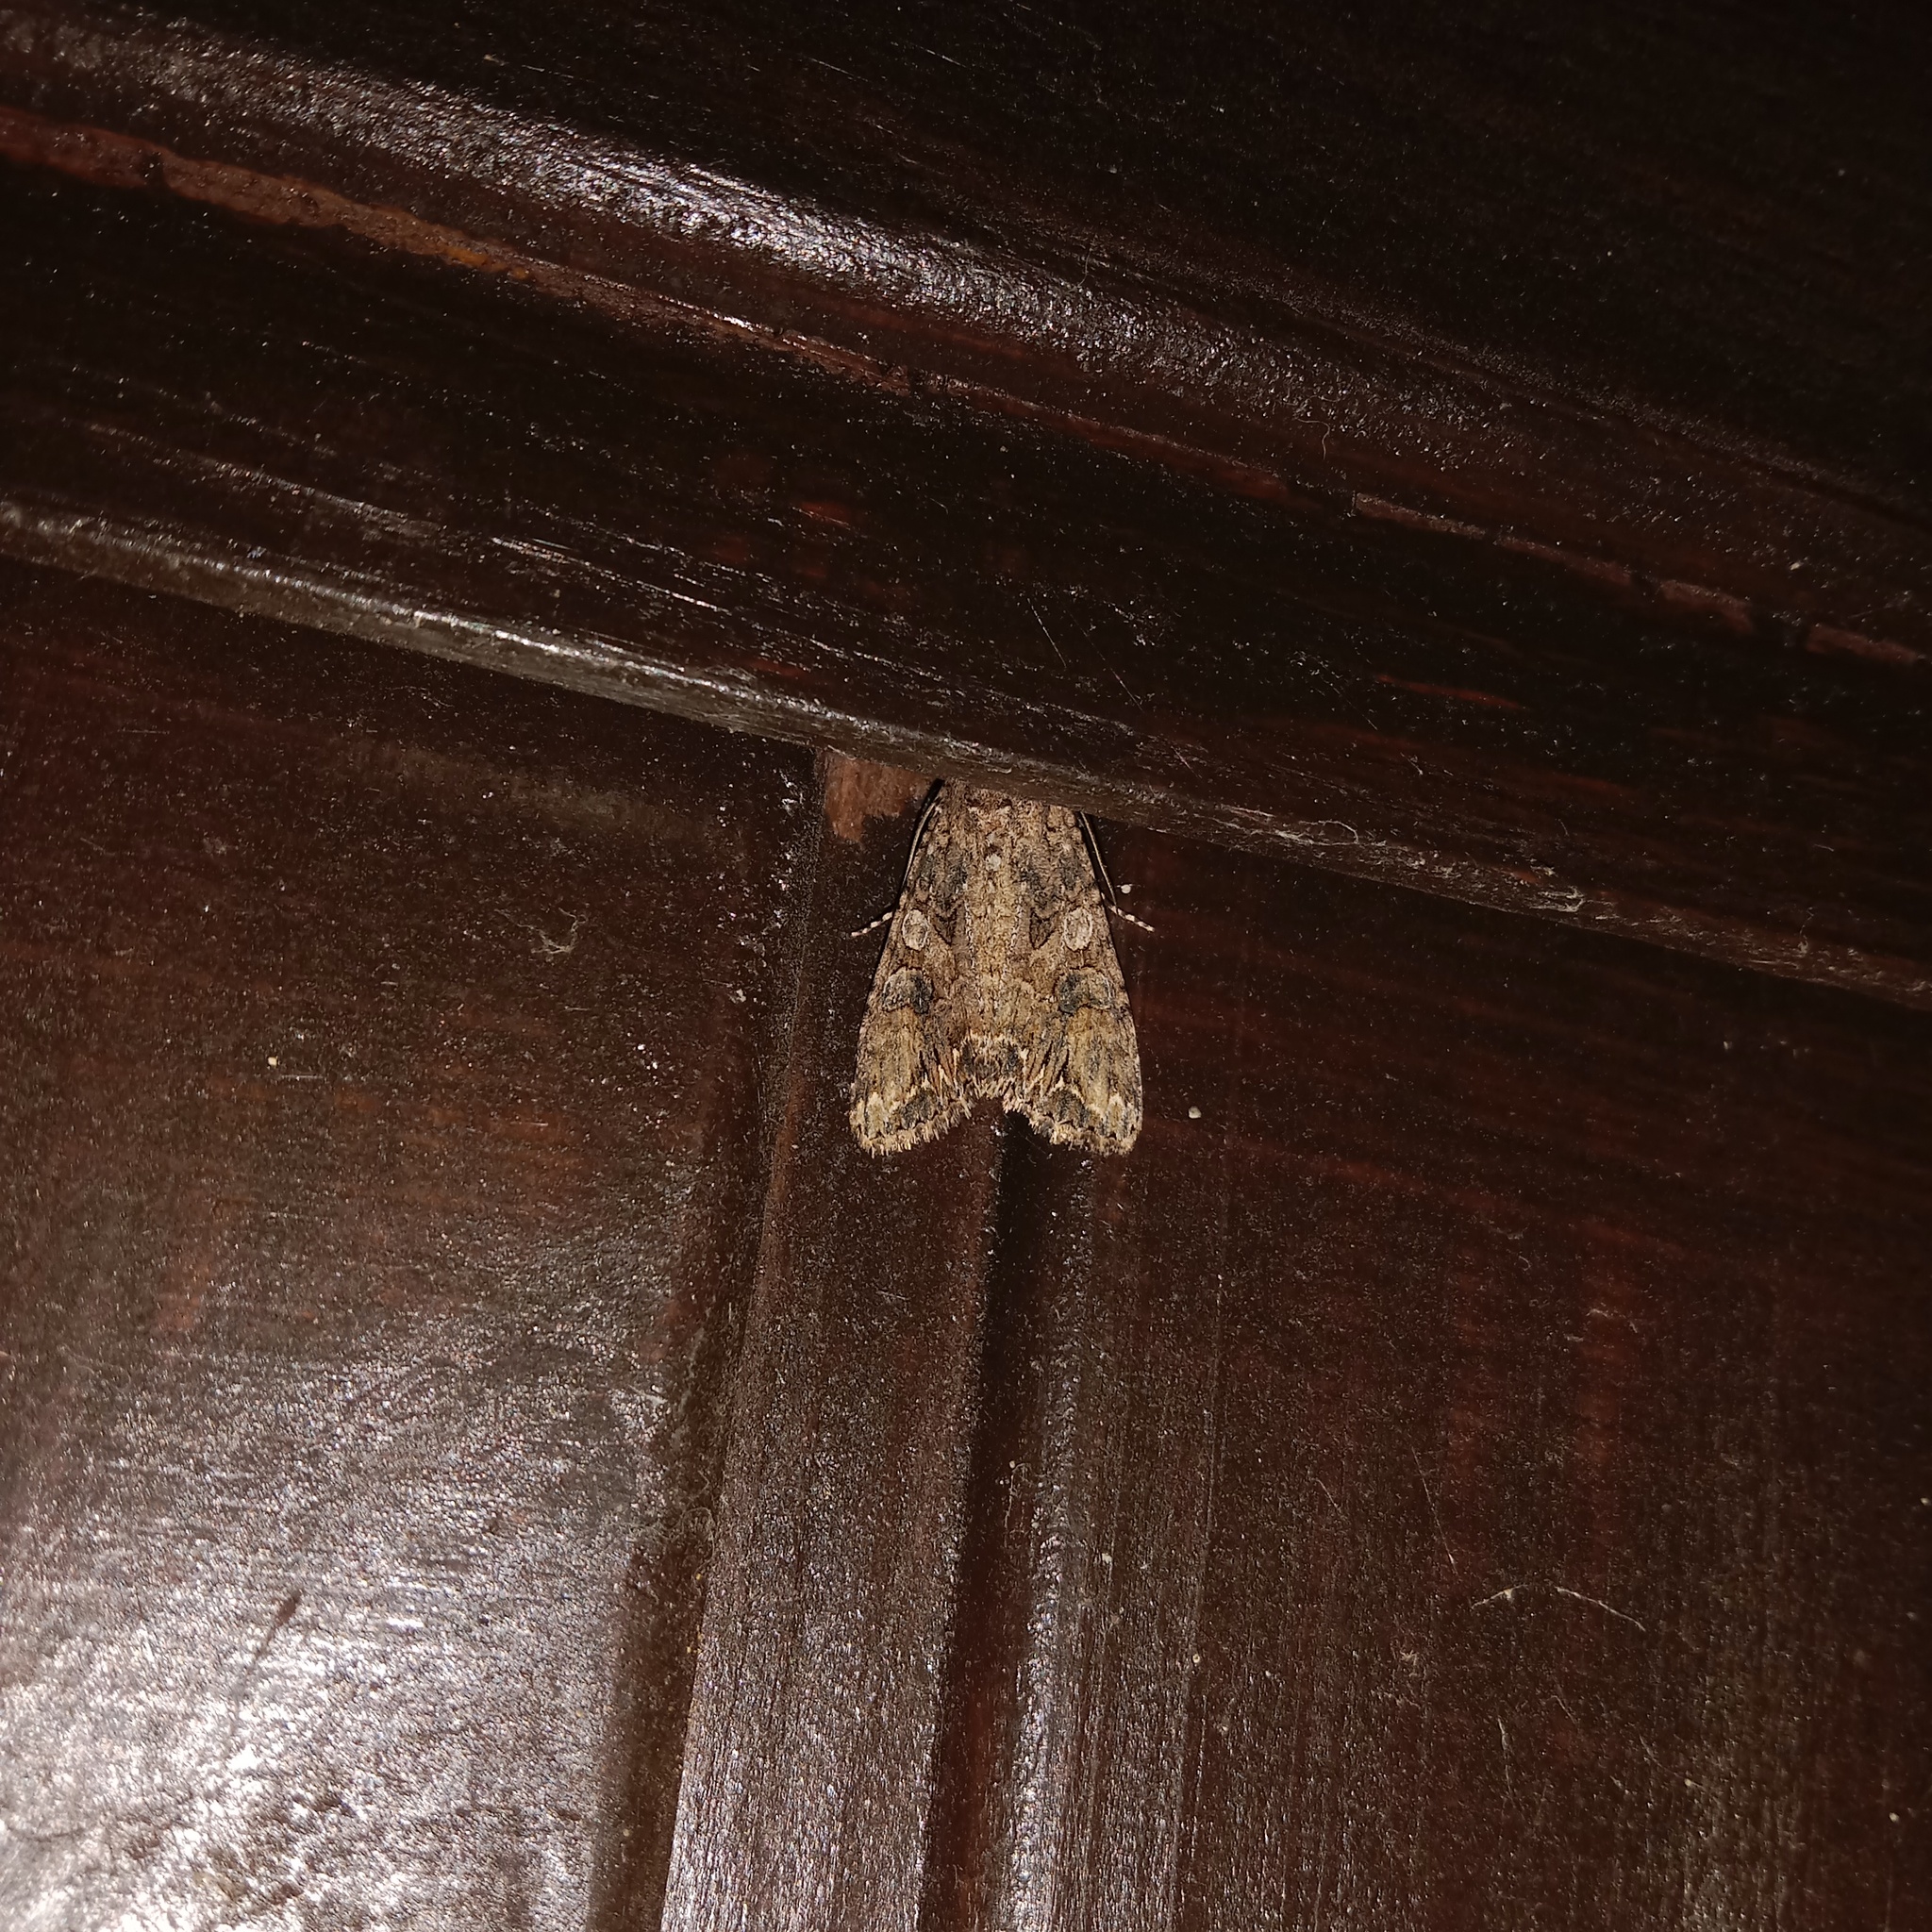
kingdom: Animalia
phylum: Arthropoda
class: Insecta
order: Lepidoptera
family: Noctuidae
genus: Anarta
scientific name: Anarta trifolii
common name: Clover cutworm moth
